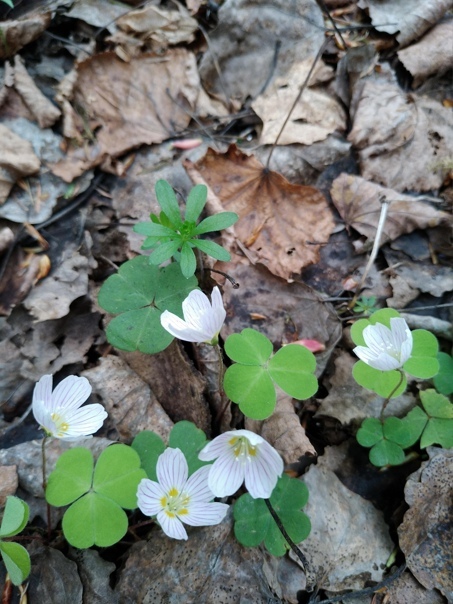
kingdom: Plantae
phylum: Tracheophyta
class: Magnoliopsida
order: Oxalidales
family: Oxalidaceae
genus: Oxalis
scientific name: Oxalis acetosella
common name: Wood-sorrel
